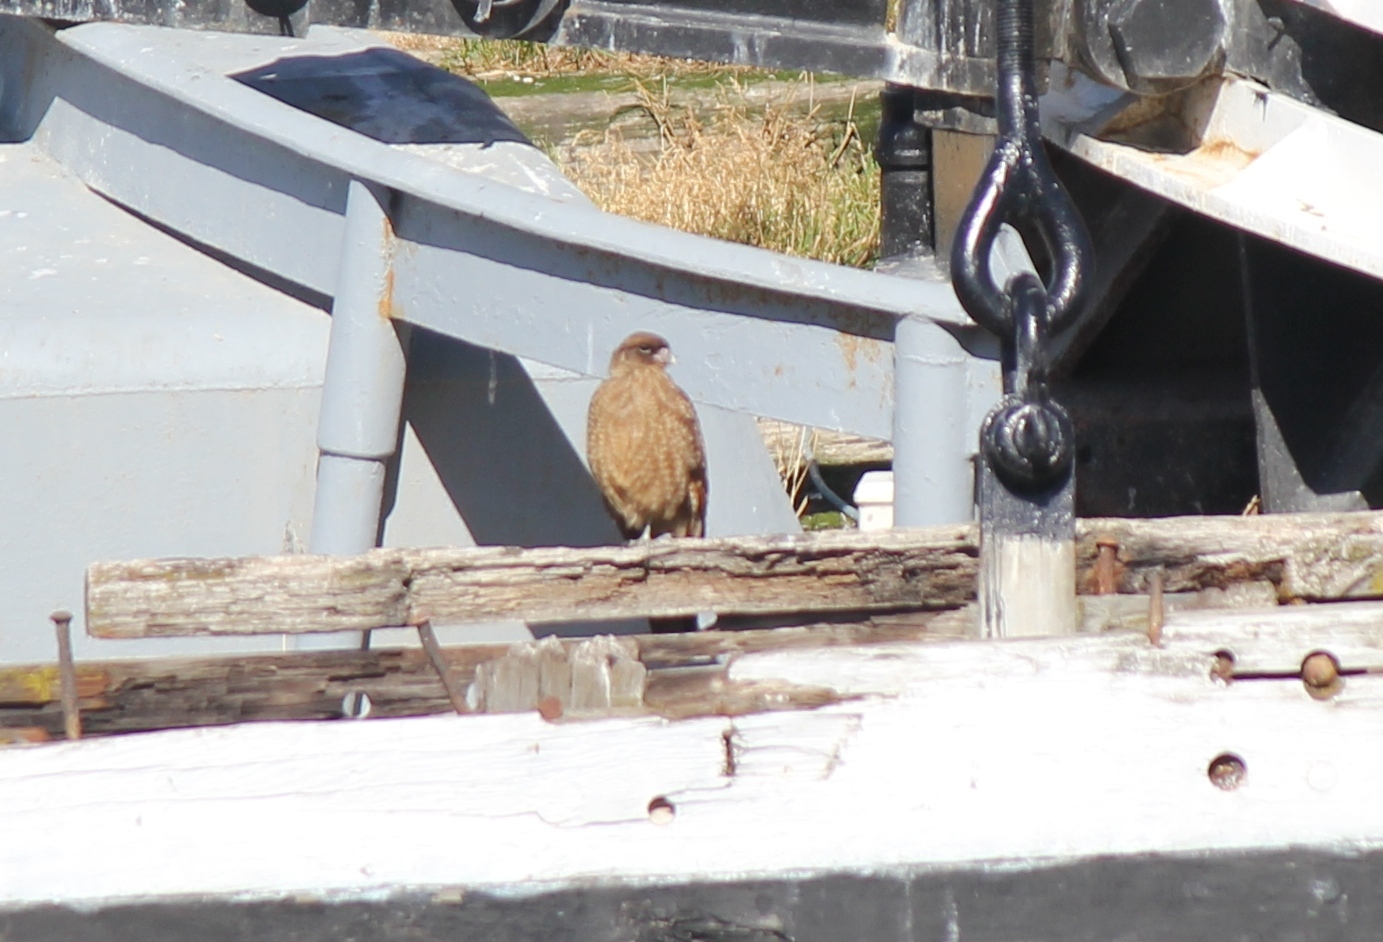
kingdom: Animalia
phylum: Chordata
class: Aves
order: Falconiformes
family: Falconidae
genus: Daptrius
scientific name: Daptrius
